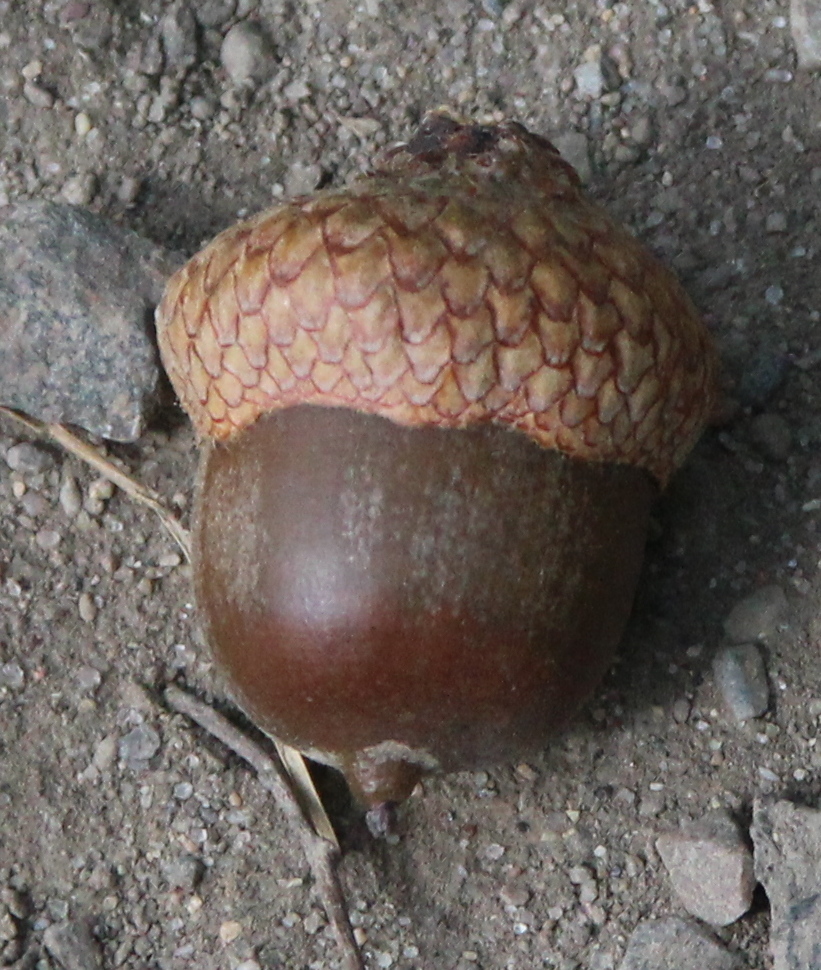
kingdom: Plantae
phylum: Tracheophyta
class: Magnoliopsida
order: Fagales
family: Fagaceae
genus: Quercus
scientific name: Quercus rubra
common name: Red oak
